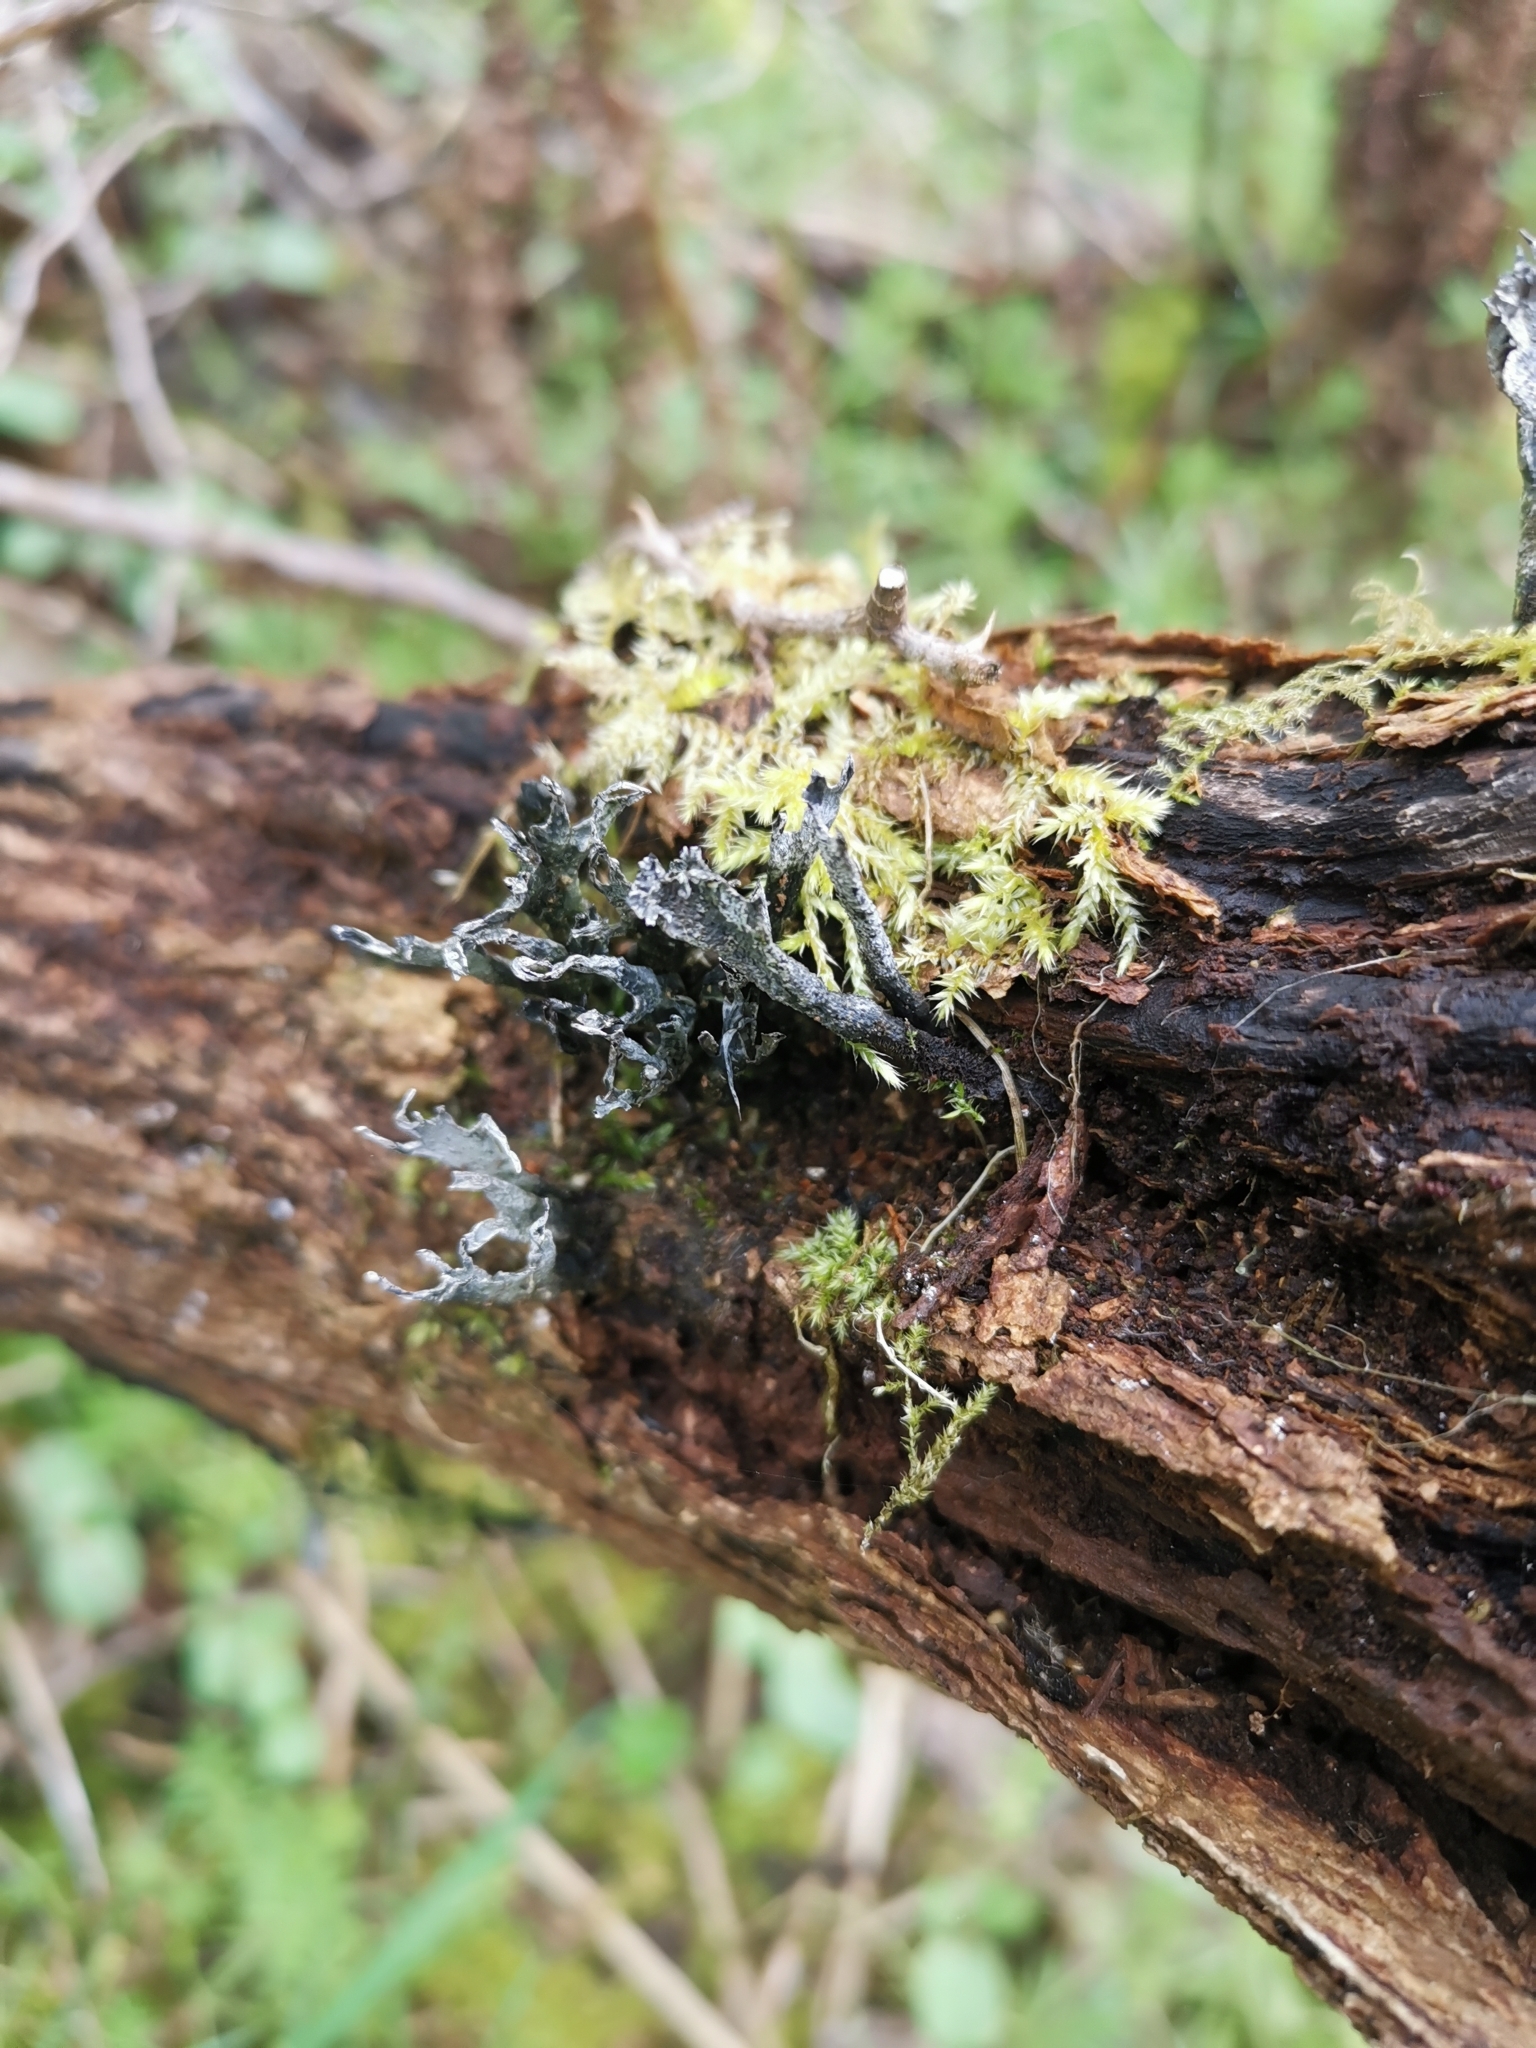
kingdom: Fungi
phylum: Ascomycota
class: Sordariomycetes
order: Xylariales
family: Xylariaceae
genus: Xylaria
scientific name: Xylaria hypoxylon
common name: Candle-snuff fungus
